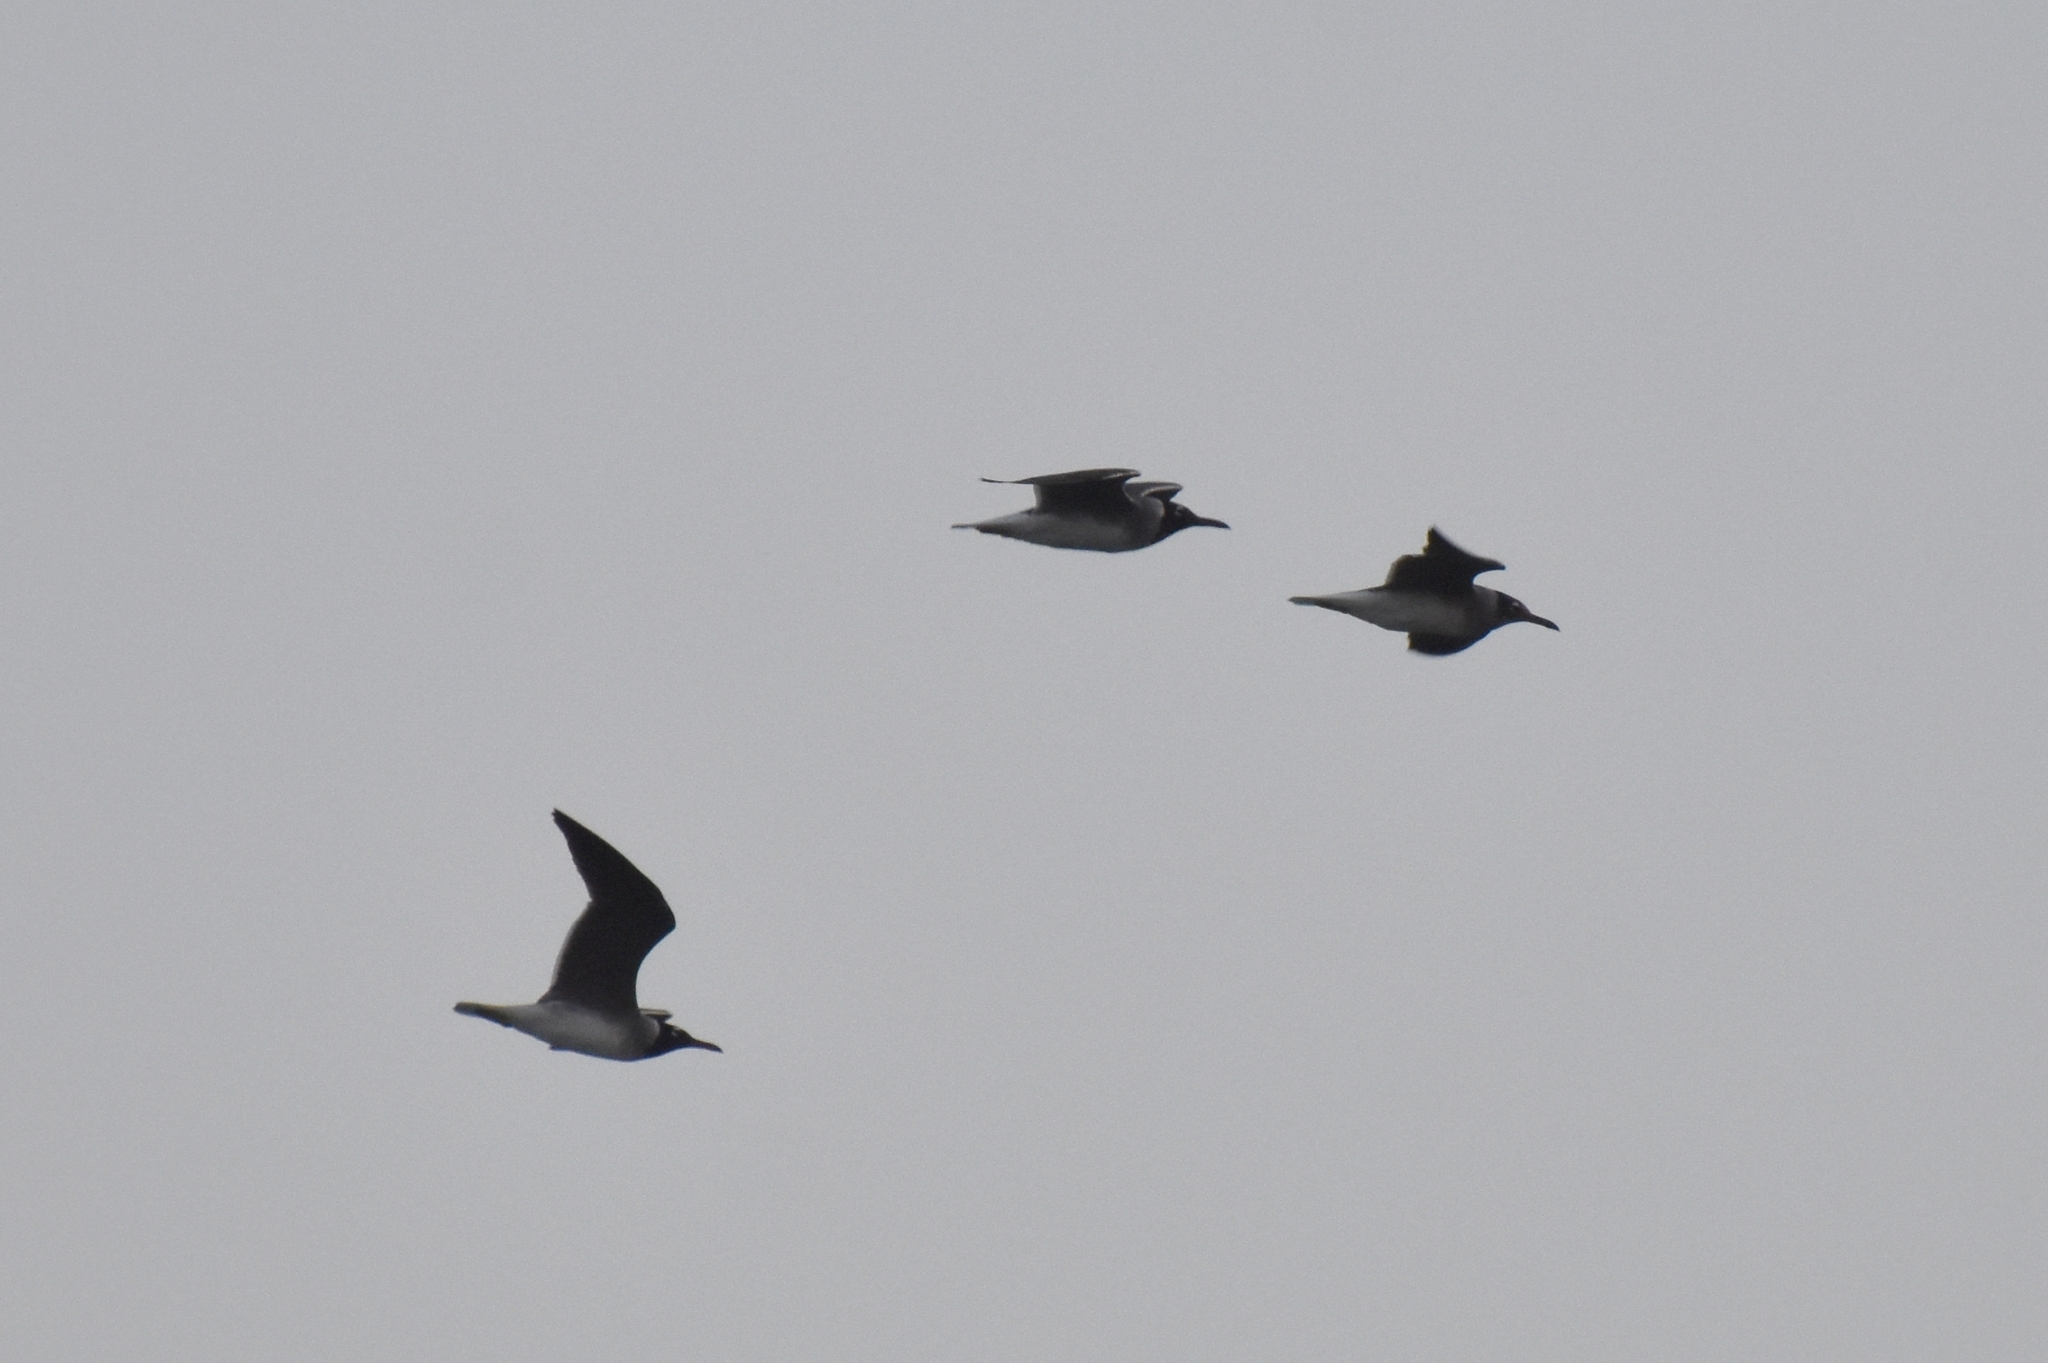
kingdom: Animalia
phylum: Chordata
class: Aves
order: Charadriiformes
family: Laridae
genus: Ichthyaetus
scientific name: Ichthyaetus leucophthalmus
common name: White-eyed gull
